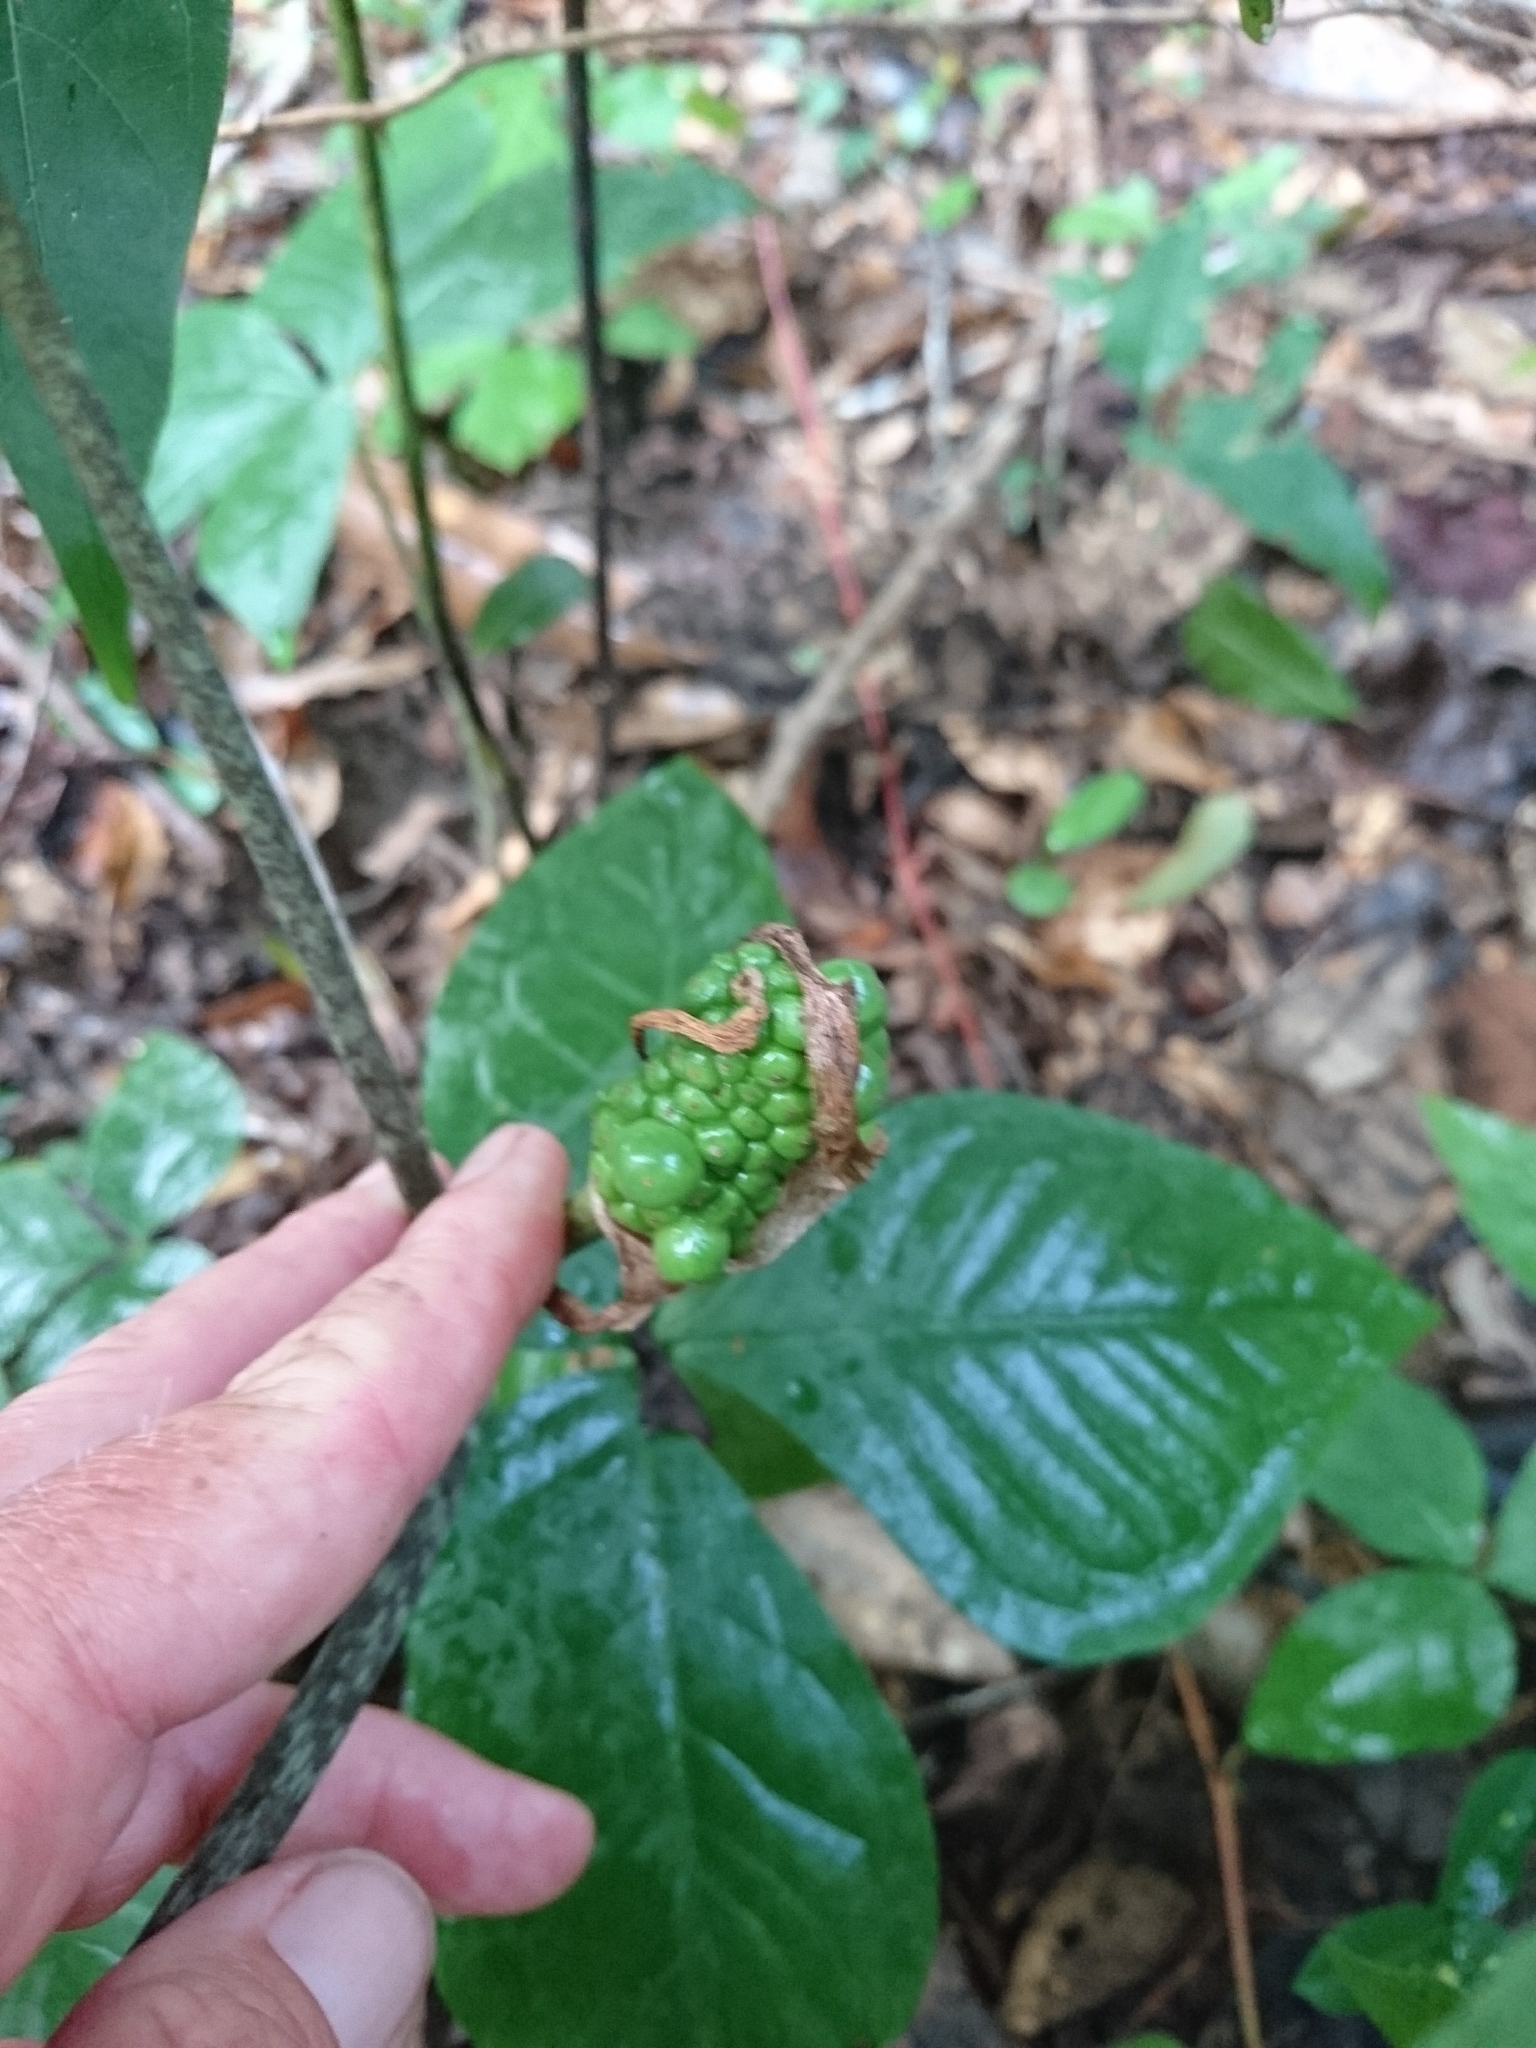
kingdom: Plantae
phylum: Tracheophyta
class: Liliopsida
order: Alismatales
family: Araceae
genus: Arisaema
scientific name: Arisaema quinatum
